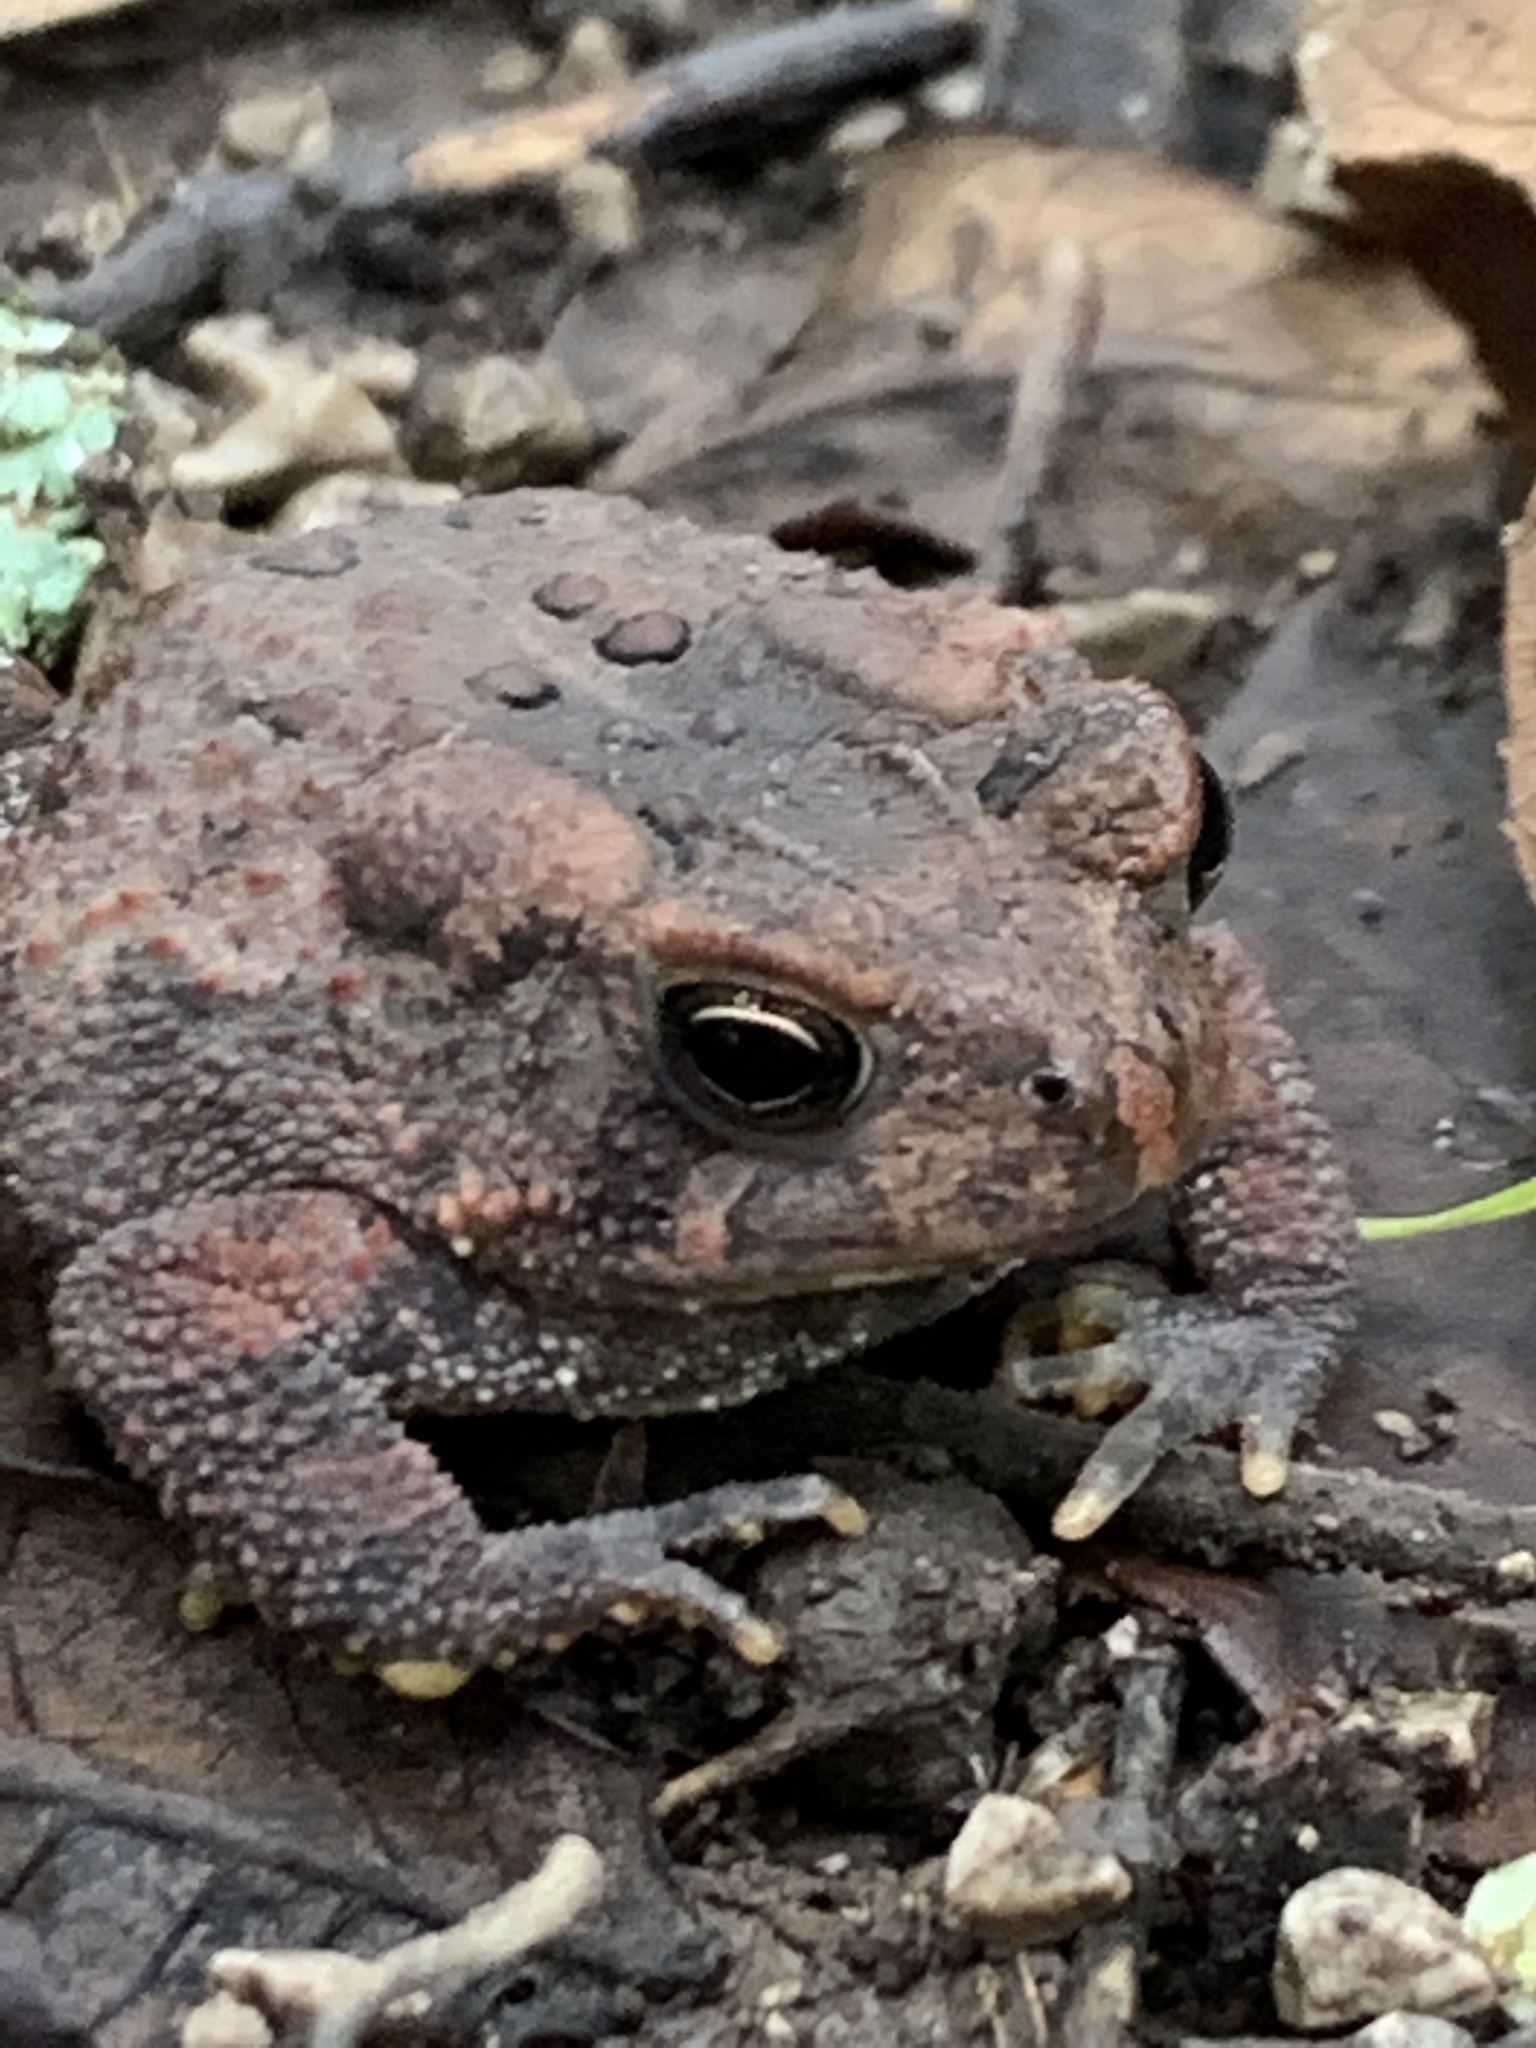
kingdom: Animalia
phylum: Chordata
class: Amphibia
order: Anura
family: Bufonidae
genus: Anaxyrus
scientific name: Anaxyrus americanus
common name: American toad
